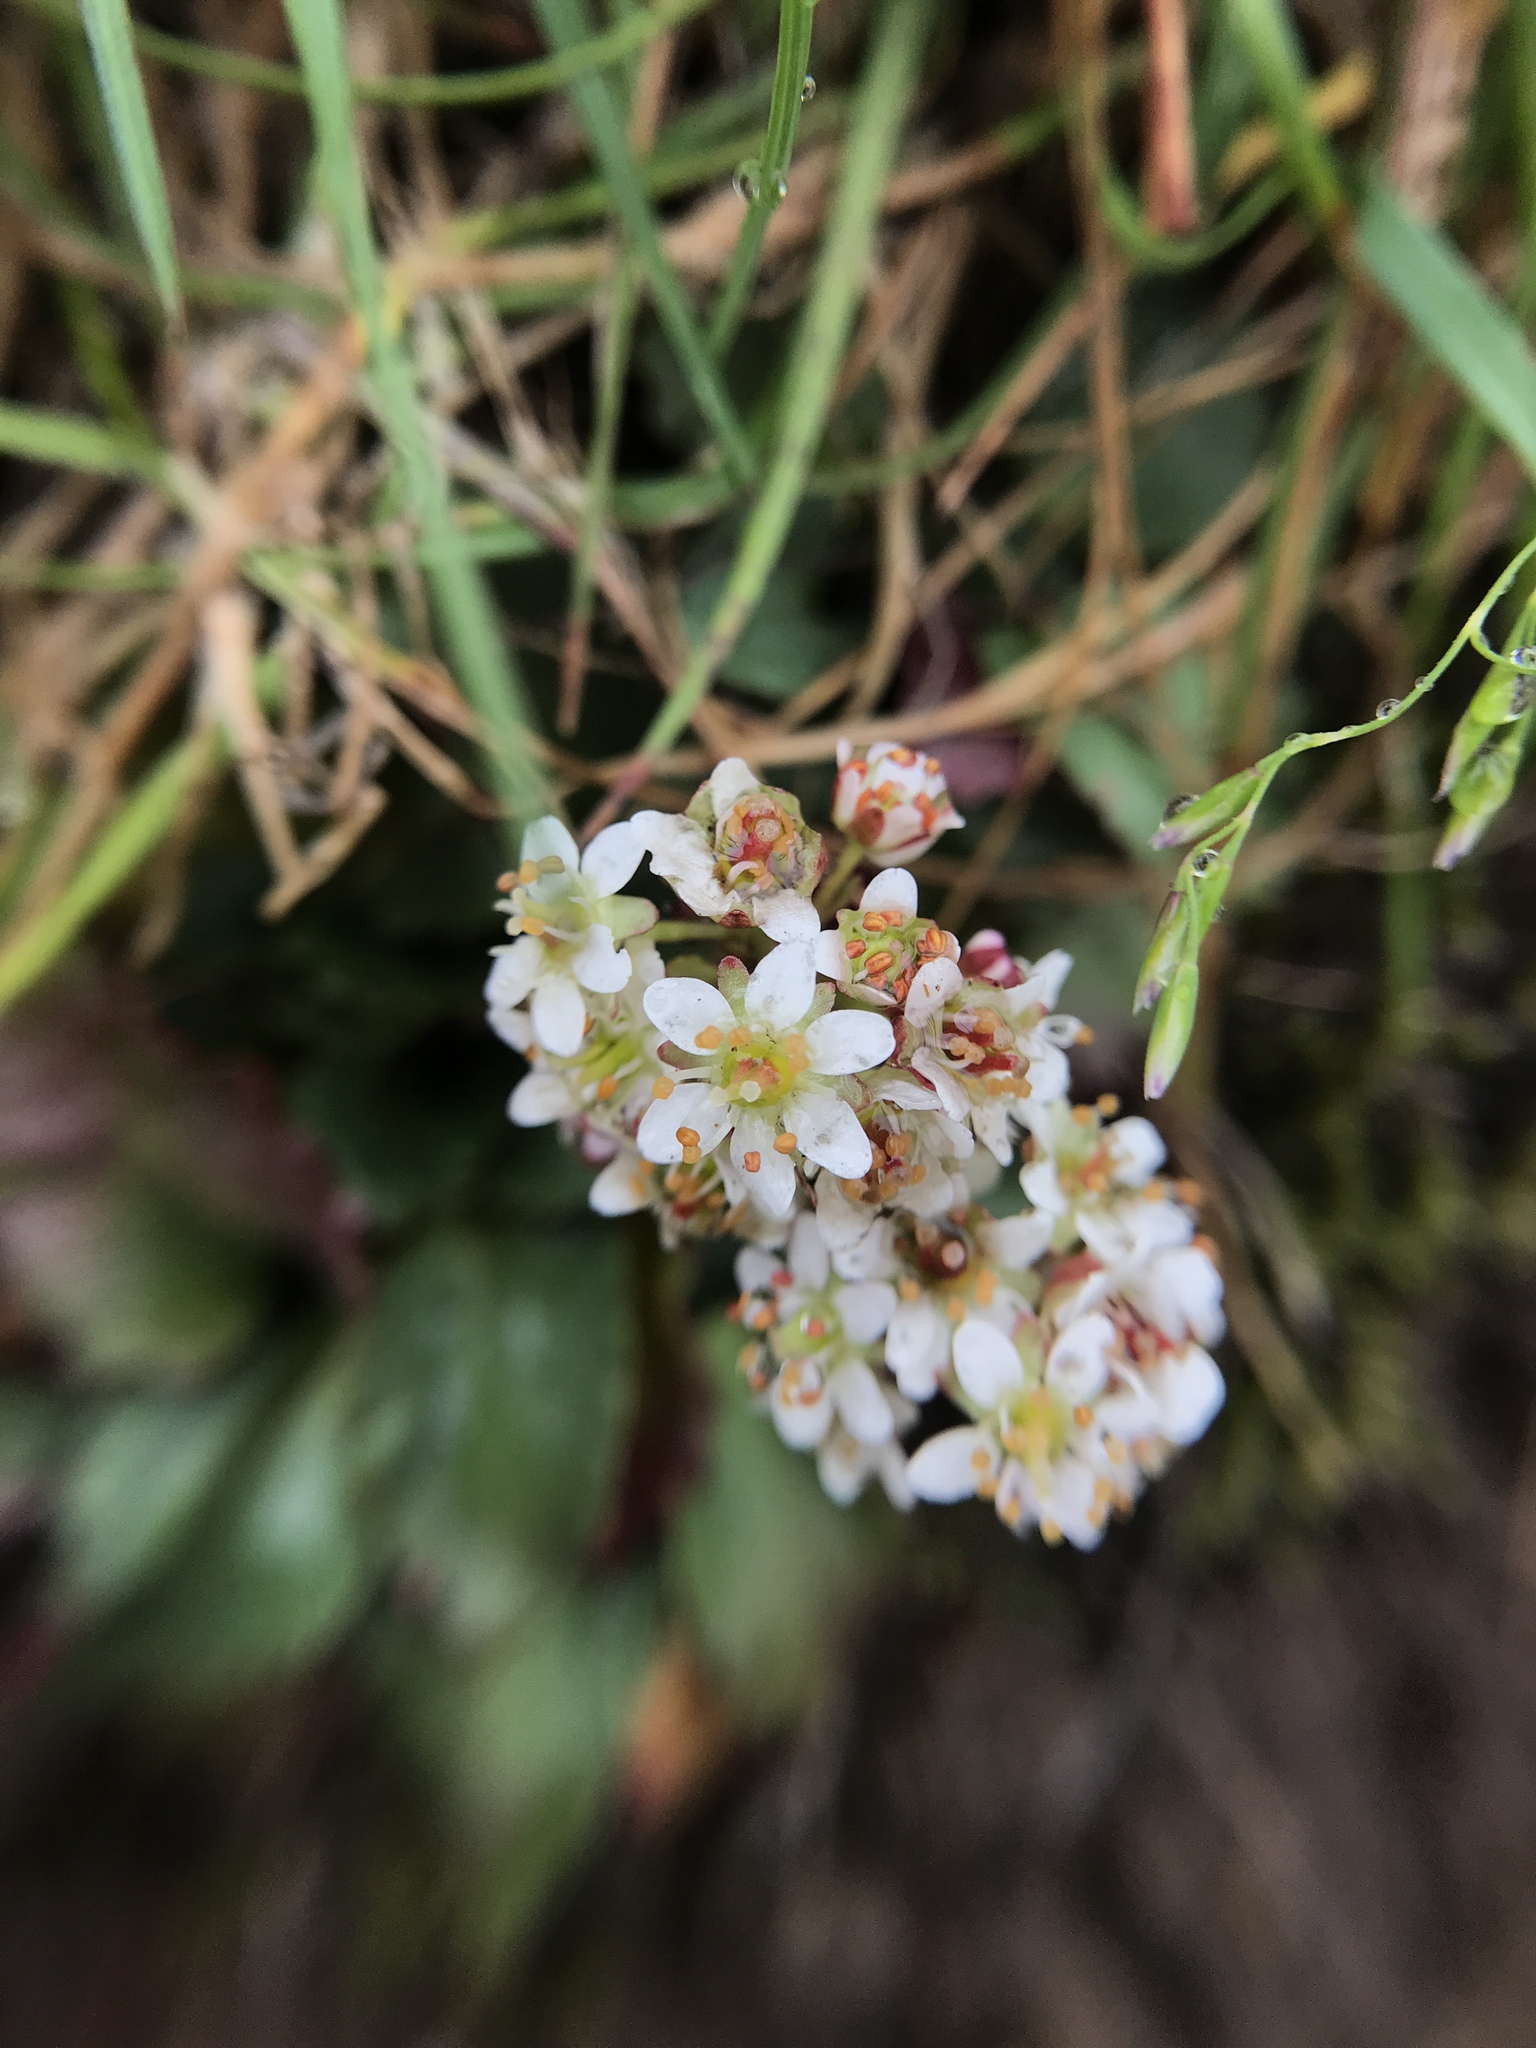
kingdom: Plantae
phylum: Tracheophyta
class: Magnoliopsida
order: Saxifragales
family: Saxifragaceae
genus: Micranthes
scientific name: Micranthes rufidula
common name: Rustyhair saxifrage
